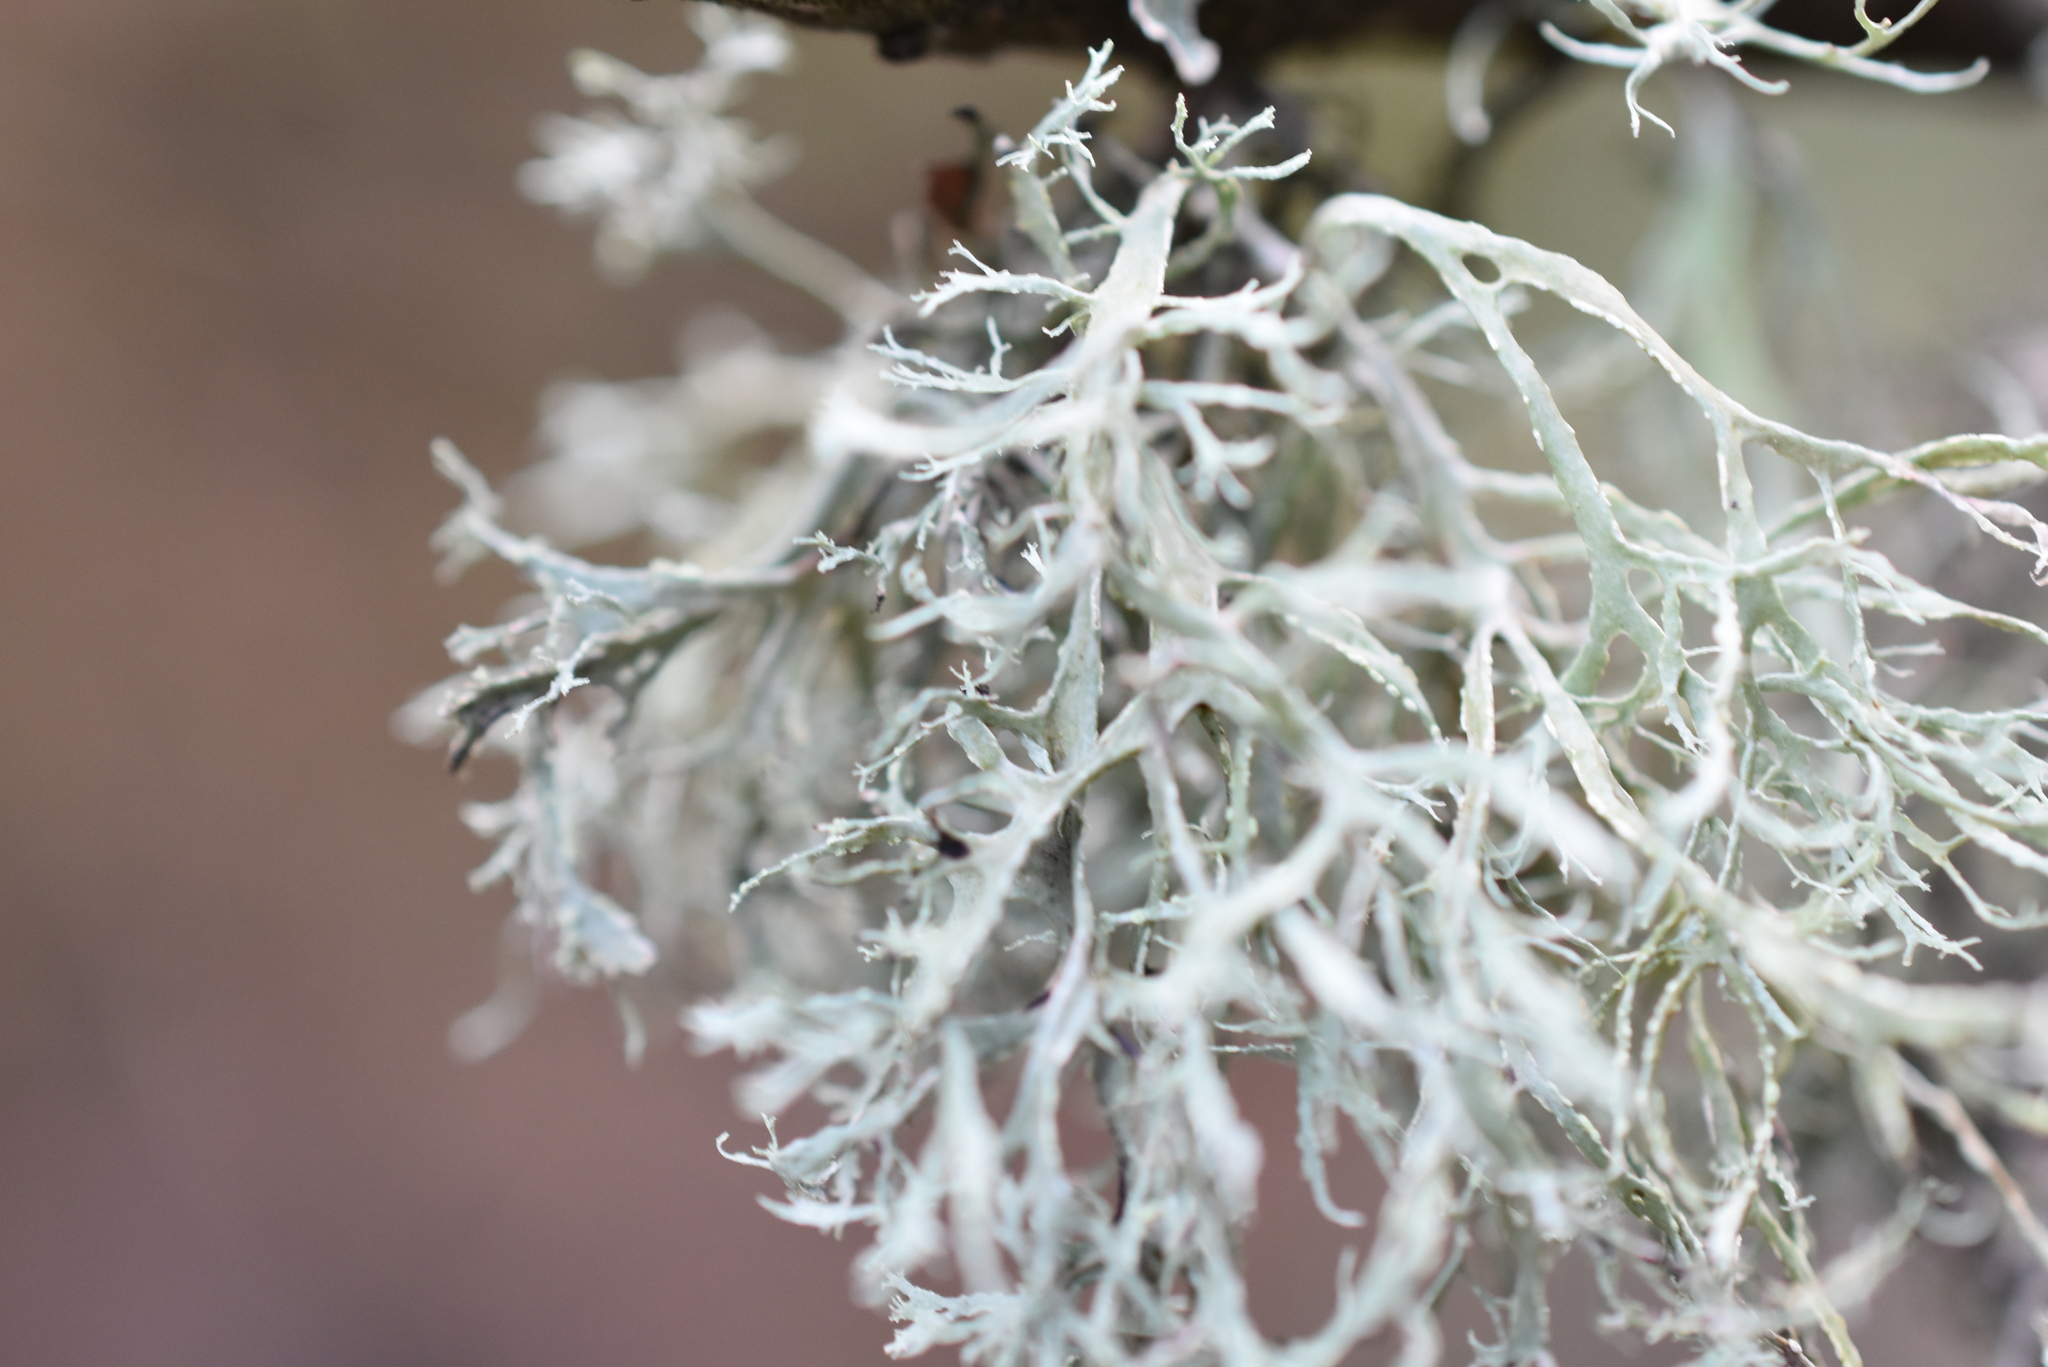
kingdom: Fungi
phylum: Ascomycota
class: Lecanoromycetes
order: Lecanorales
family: Ramalinaceae
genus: Ramalina
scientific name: Ramalina farinacea
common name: Farinose cartilage lichen
